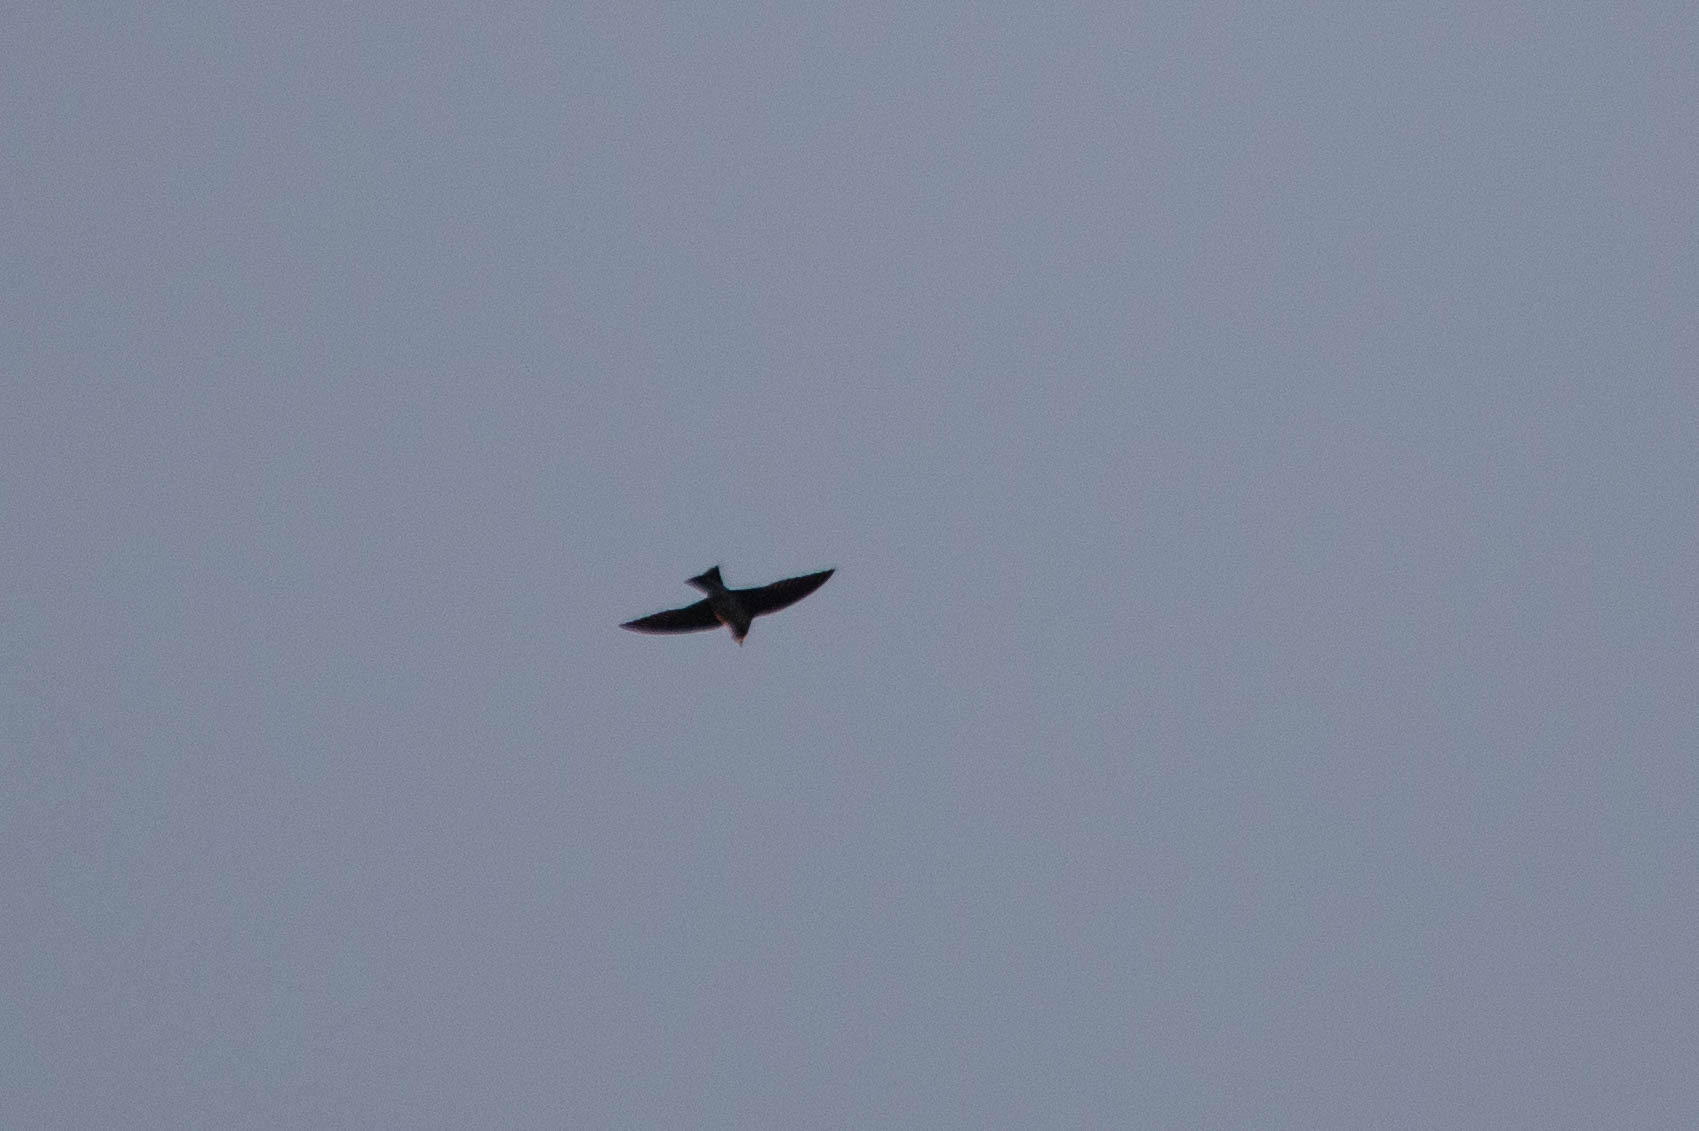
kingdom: Animalia
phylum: Chordata
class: Aves
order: Passeriformes
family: Hirundinidae
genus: Progne
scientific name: Progne subis
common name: Purple martin
